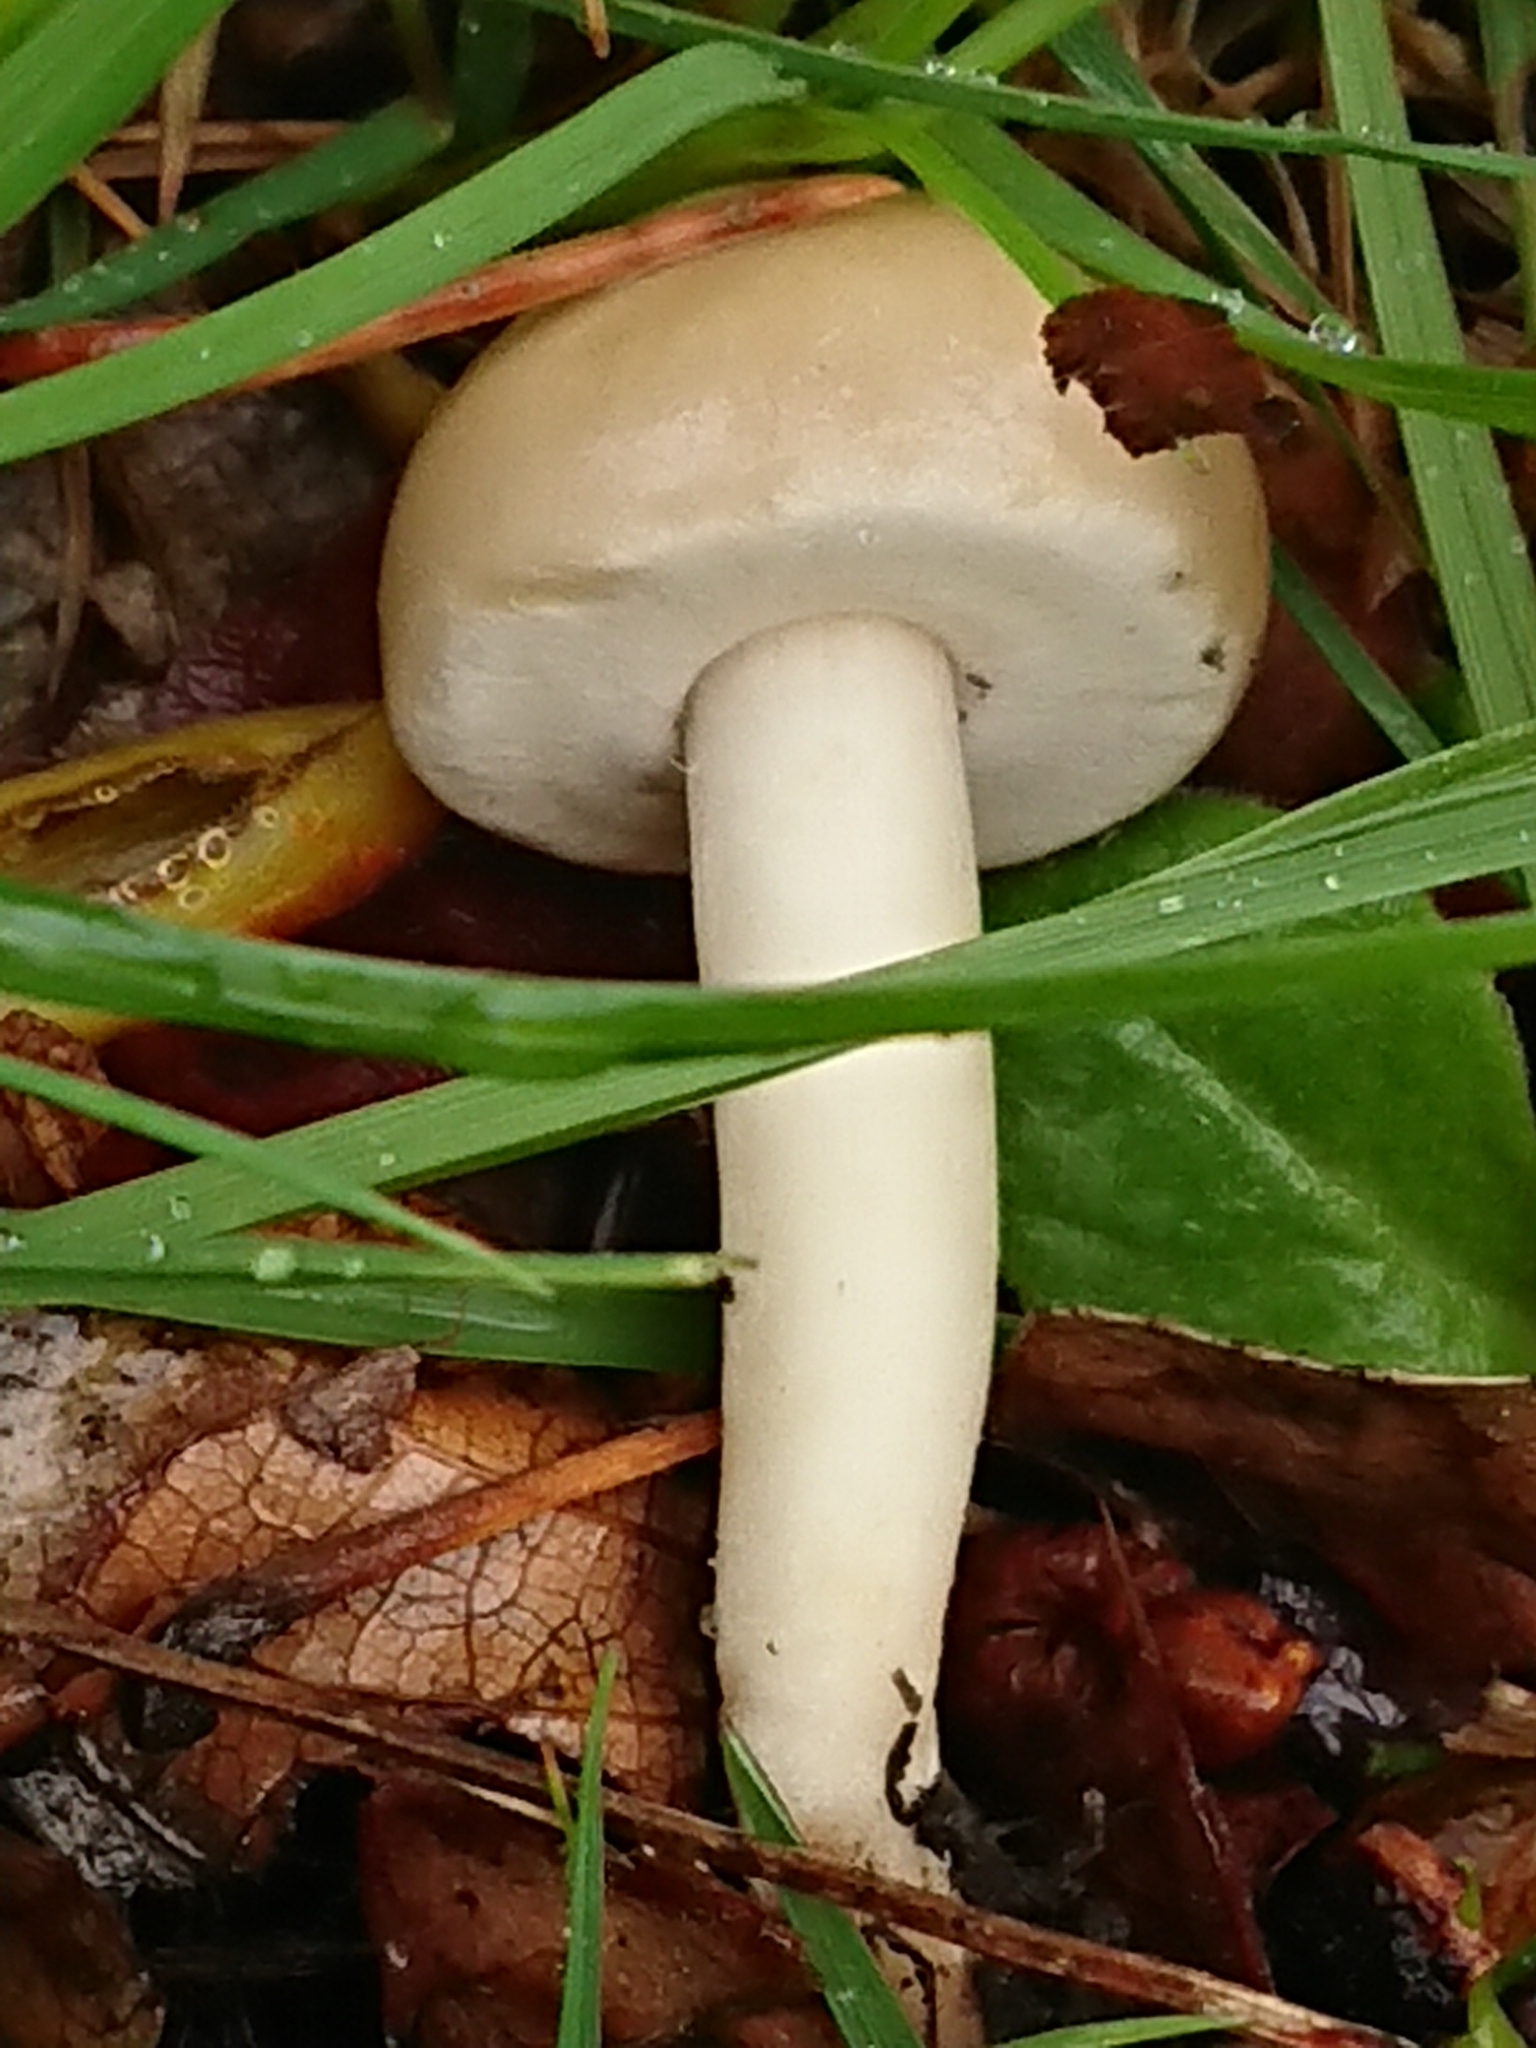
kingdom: Fungi
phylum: Basidiomycota
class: Agaricomycetes
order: Agaricales
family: Strophariaceae
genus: Agrocybe
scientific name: Agrocybe praecox
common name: Spring fieldcap
